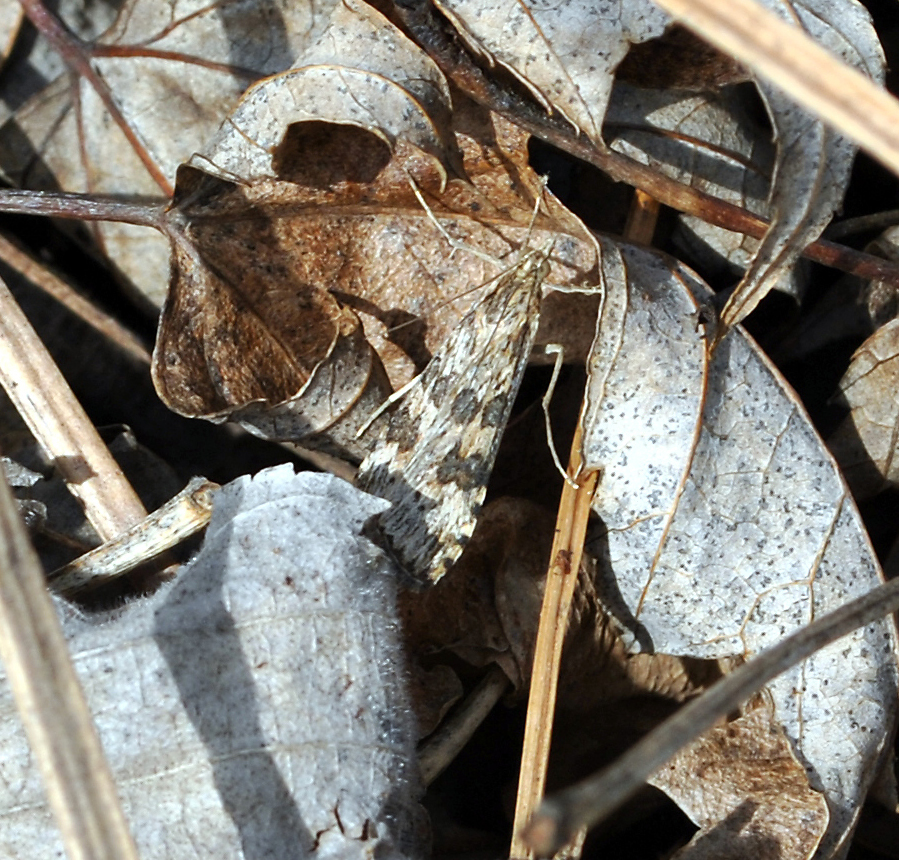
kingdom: Animalia
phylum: Arthropoda
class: Insecta
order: Lepidoptera
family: Crambidae
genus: Nomophila
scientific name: Nomophila nearctica
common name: American rush veneer
